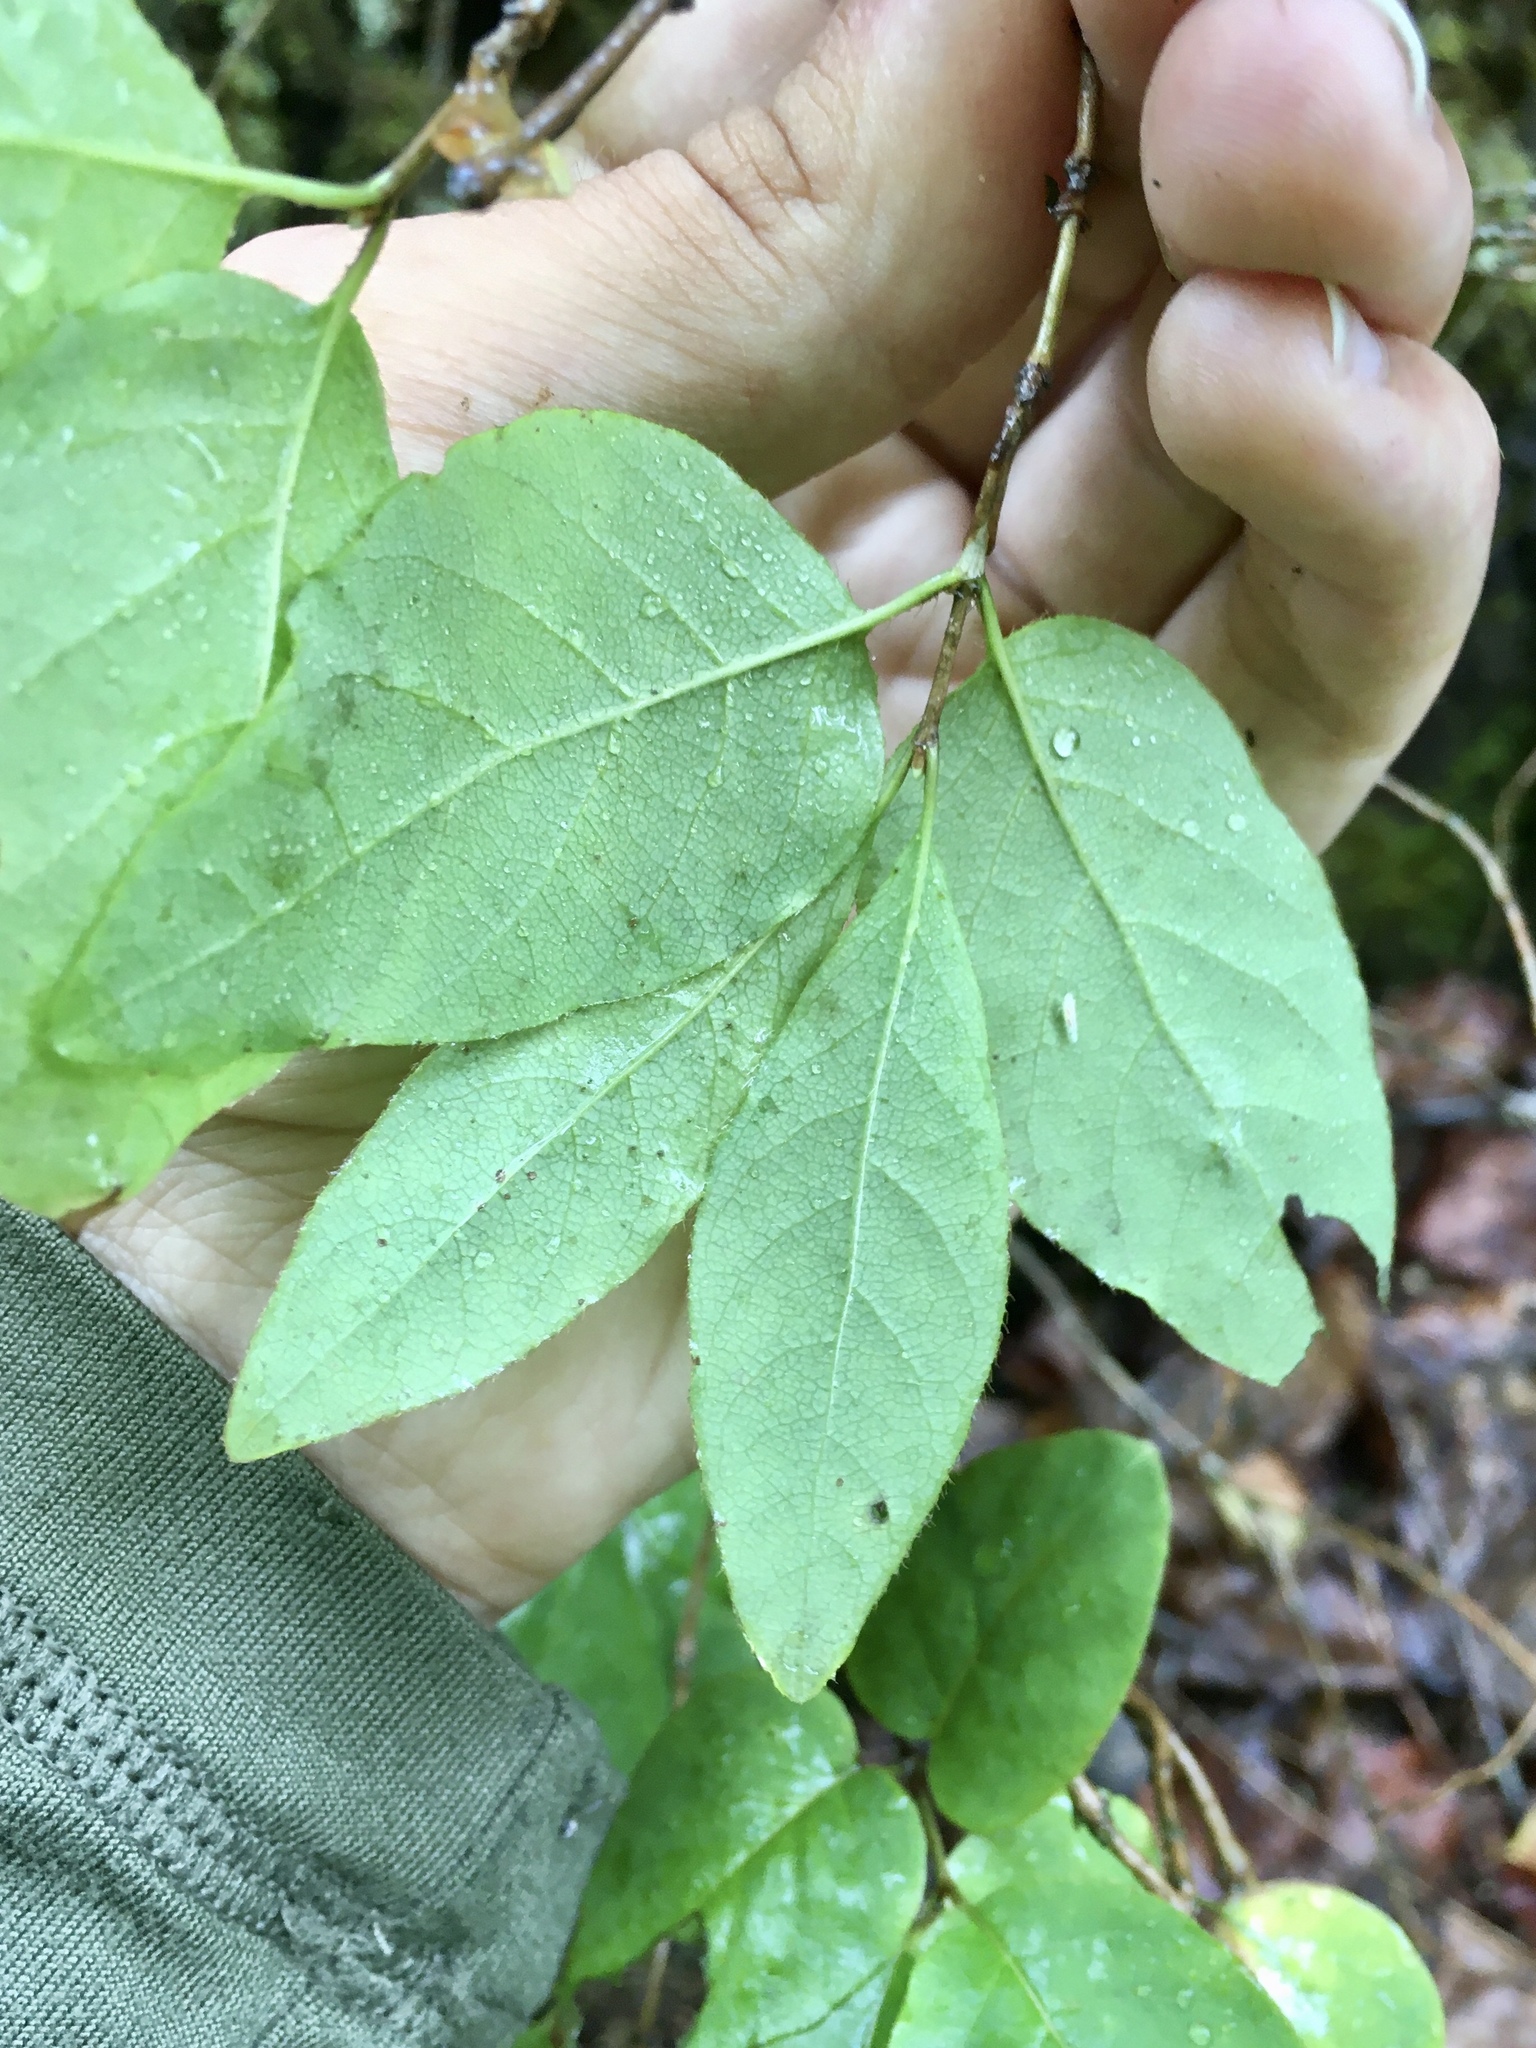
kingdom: Plantae
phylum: Tracheophyta
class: Magnoliopsida
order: Dipsacales
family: Caprifoliaceae
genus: Lonicera
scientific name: Lonicera canadensis
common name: American fly-honeysuckle
